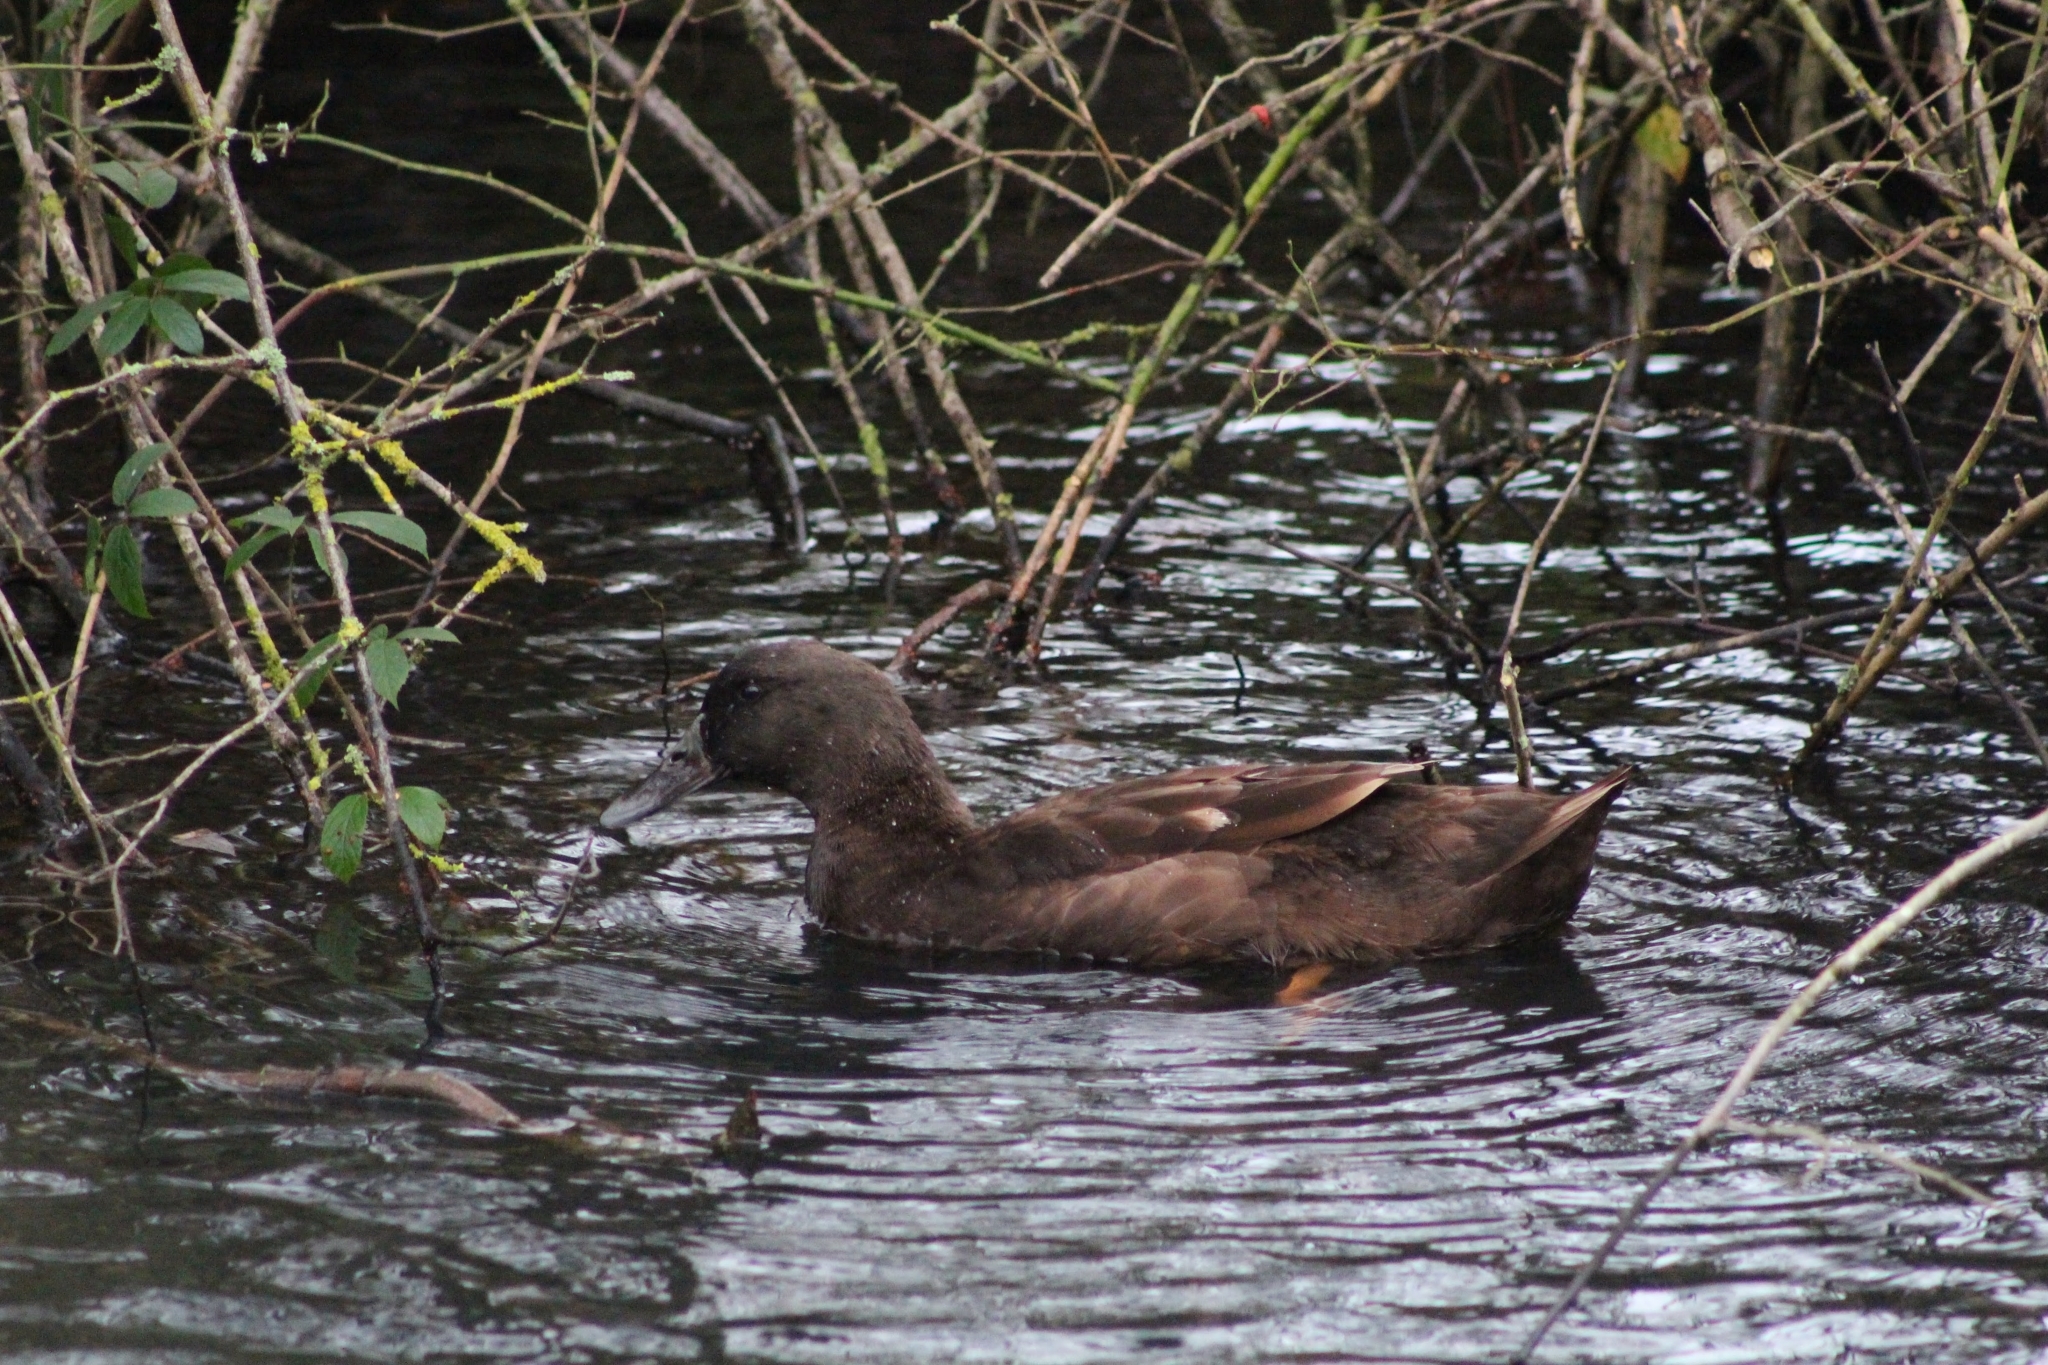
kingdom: Animalia
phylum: Chordata
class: Aves
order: Anseriformes
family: Anatidae
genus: Anas
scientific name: Anas platyrhynchos
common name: Mallard
